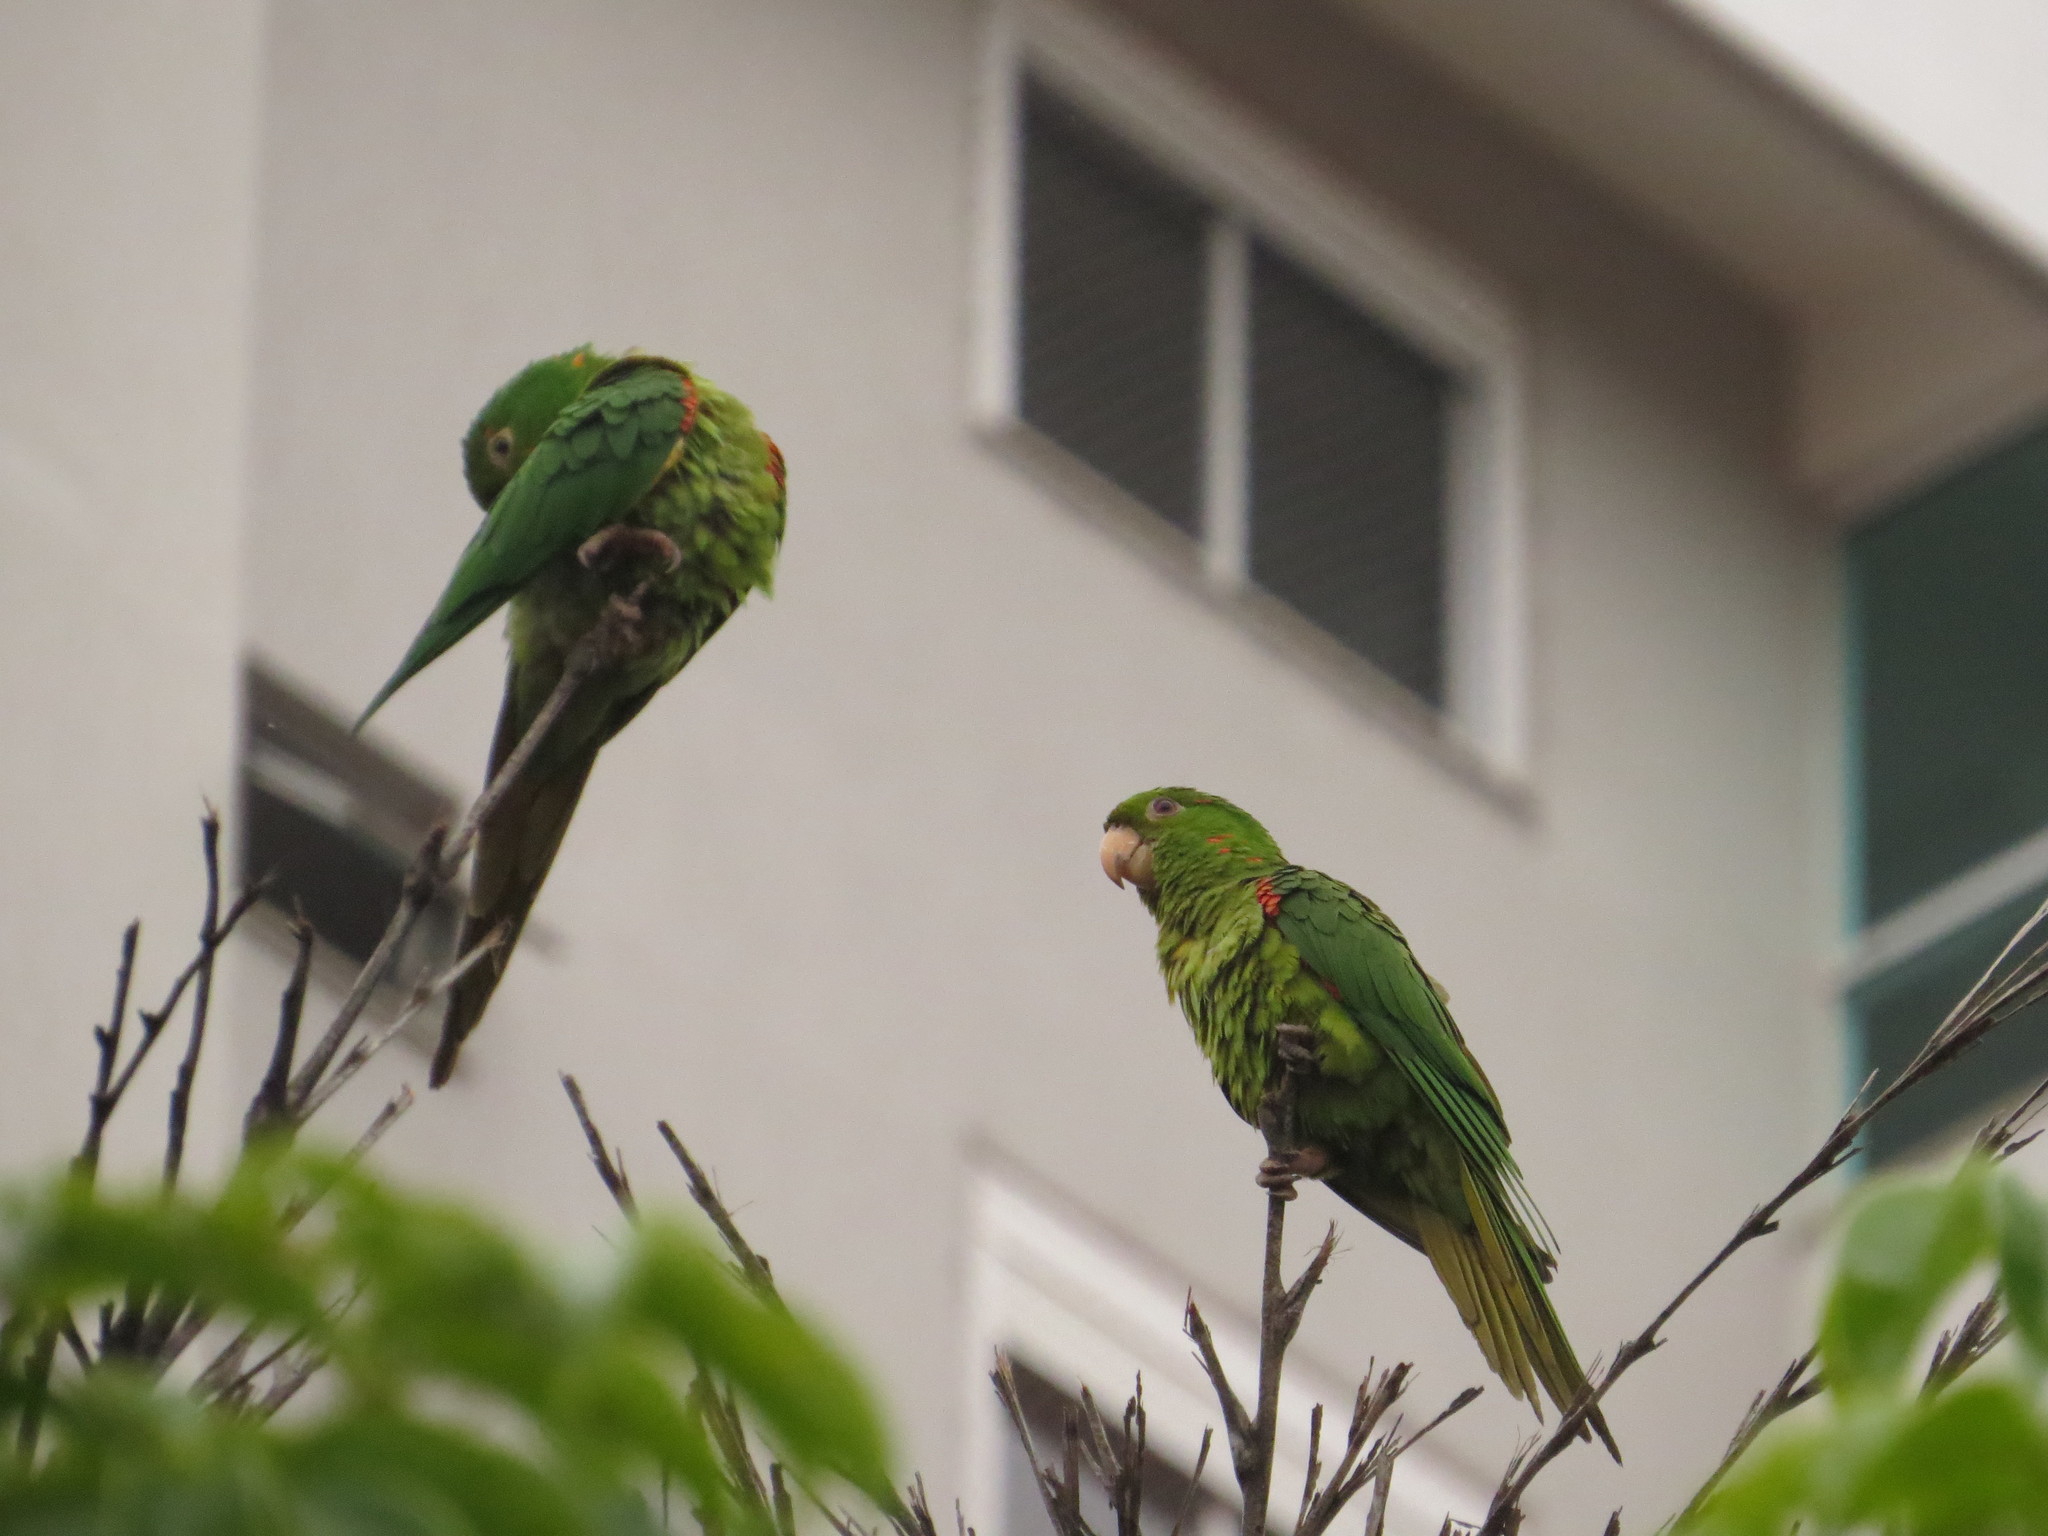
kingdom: Animalia
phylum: Chordata
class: Aves
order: Psittaciformes
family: Psittacidae
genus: Aratinga
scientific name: Aratinga leucophthalma
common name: White-eyed parakeet
